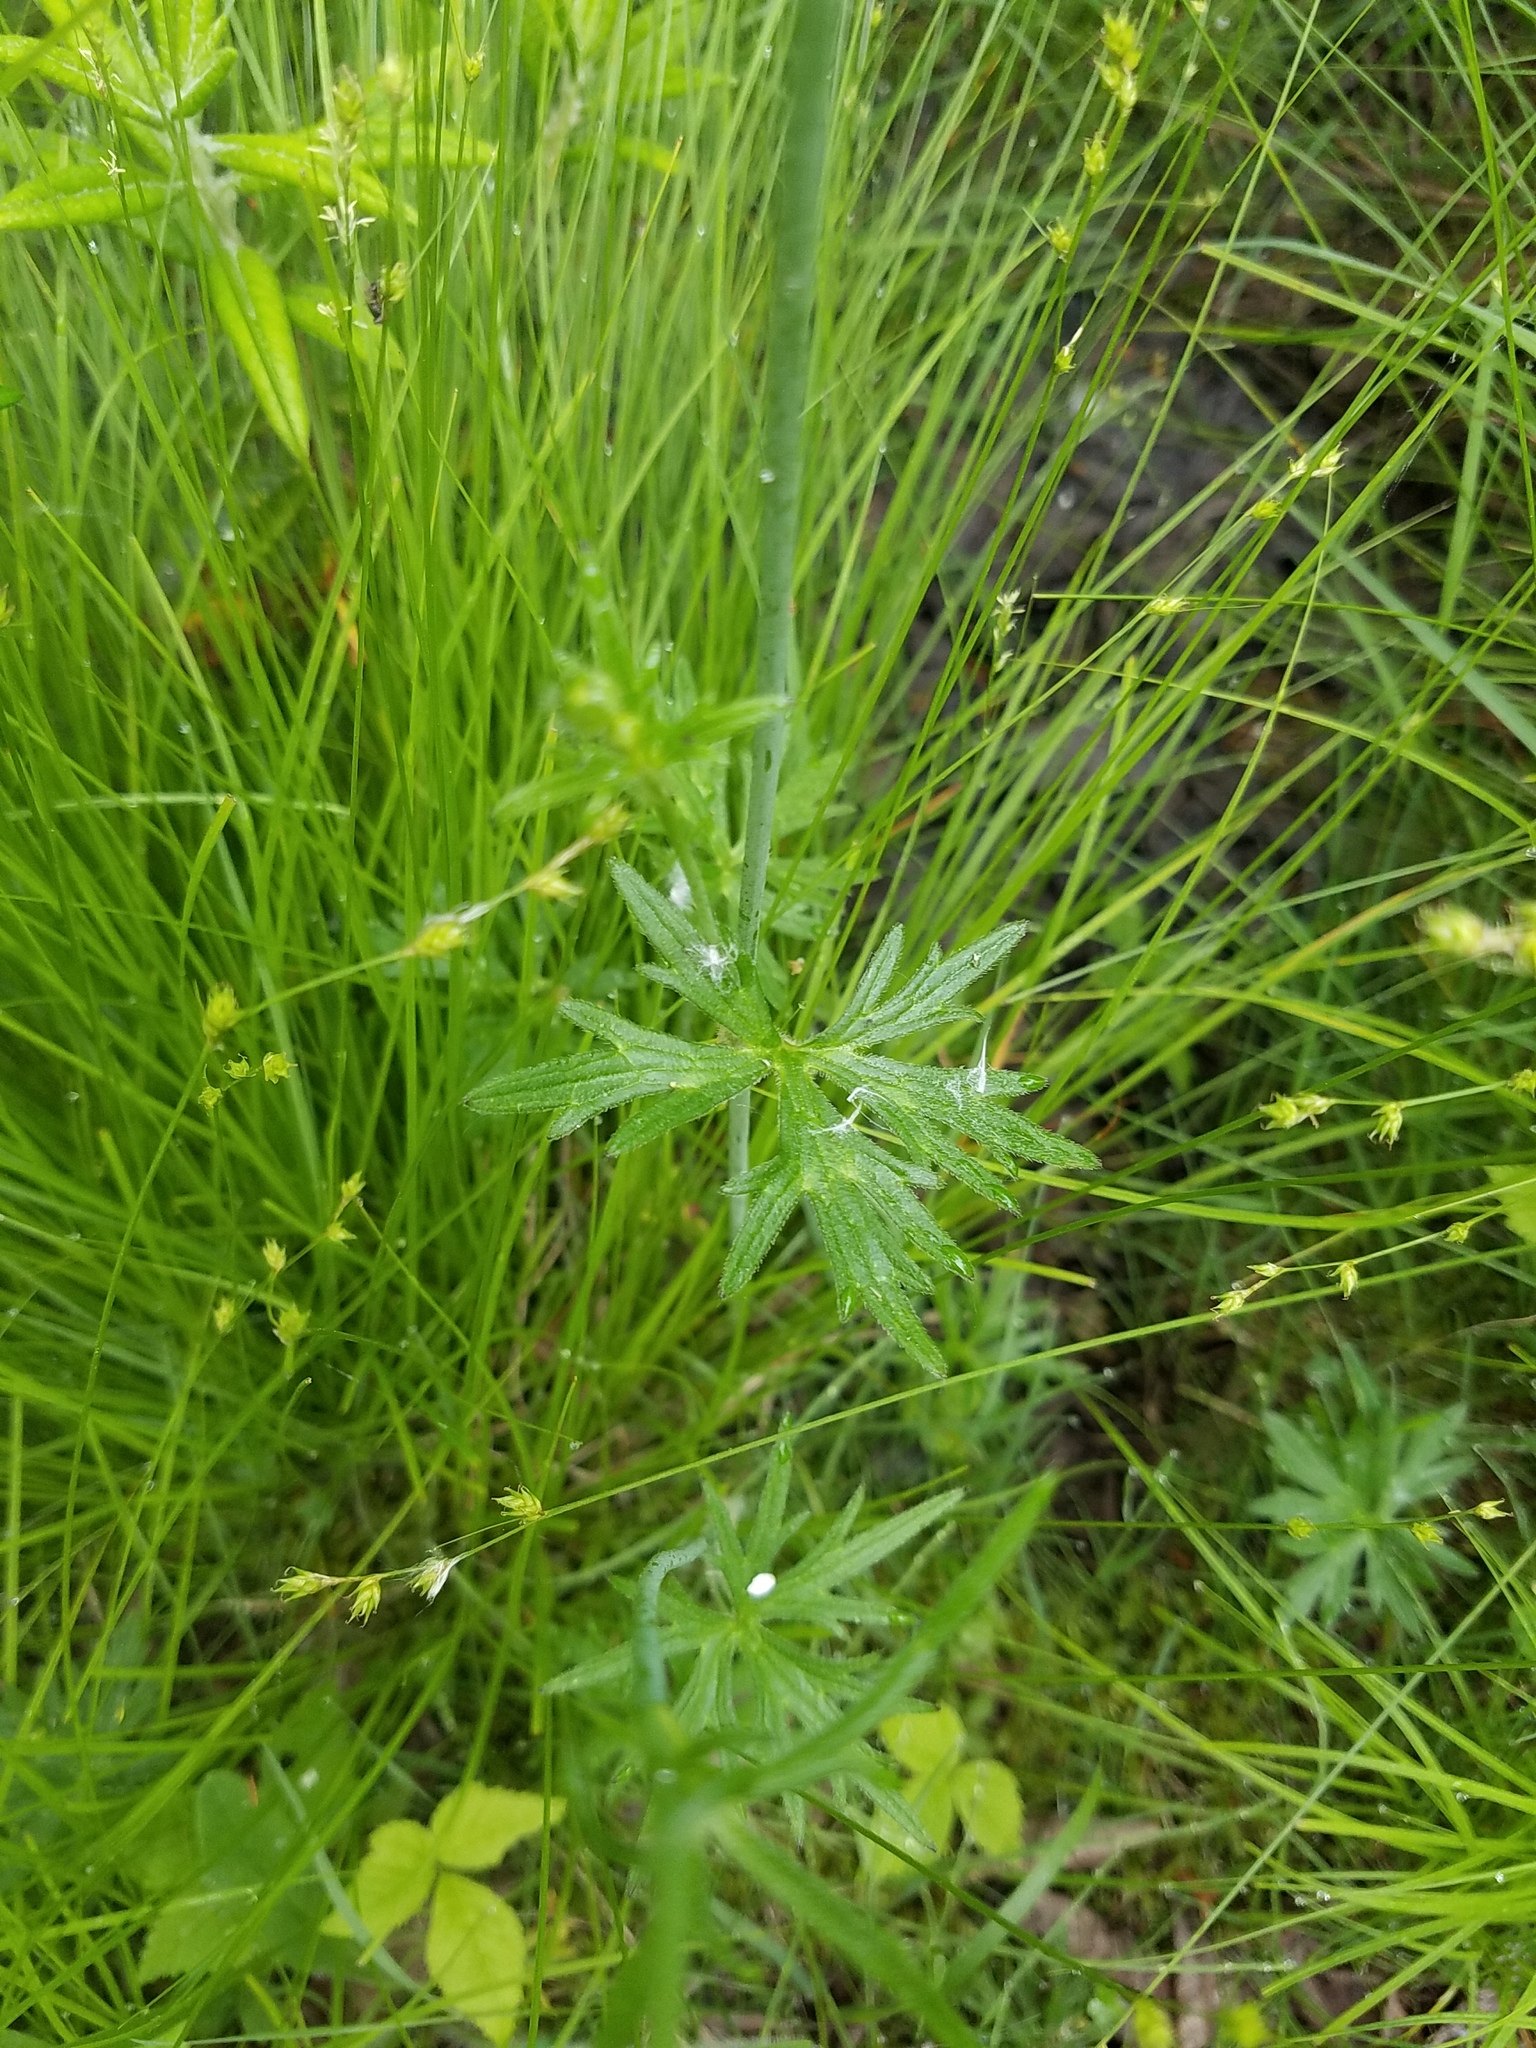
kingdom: Plantae
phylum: Tracheophyta
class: Magnoliopsida
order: Ranunculales
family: Ranunculaceae
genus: Ranunculus
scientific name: Ranunculus acris
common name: Meadow buttercup
